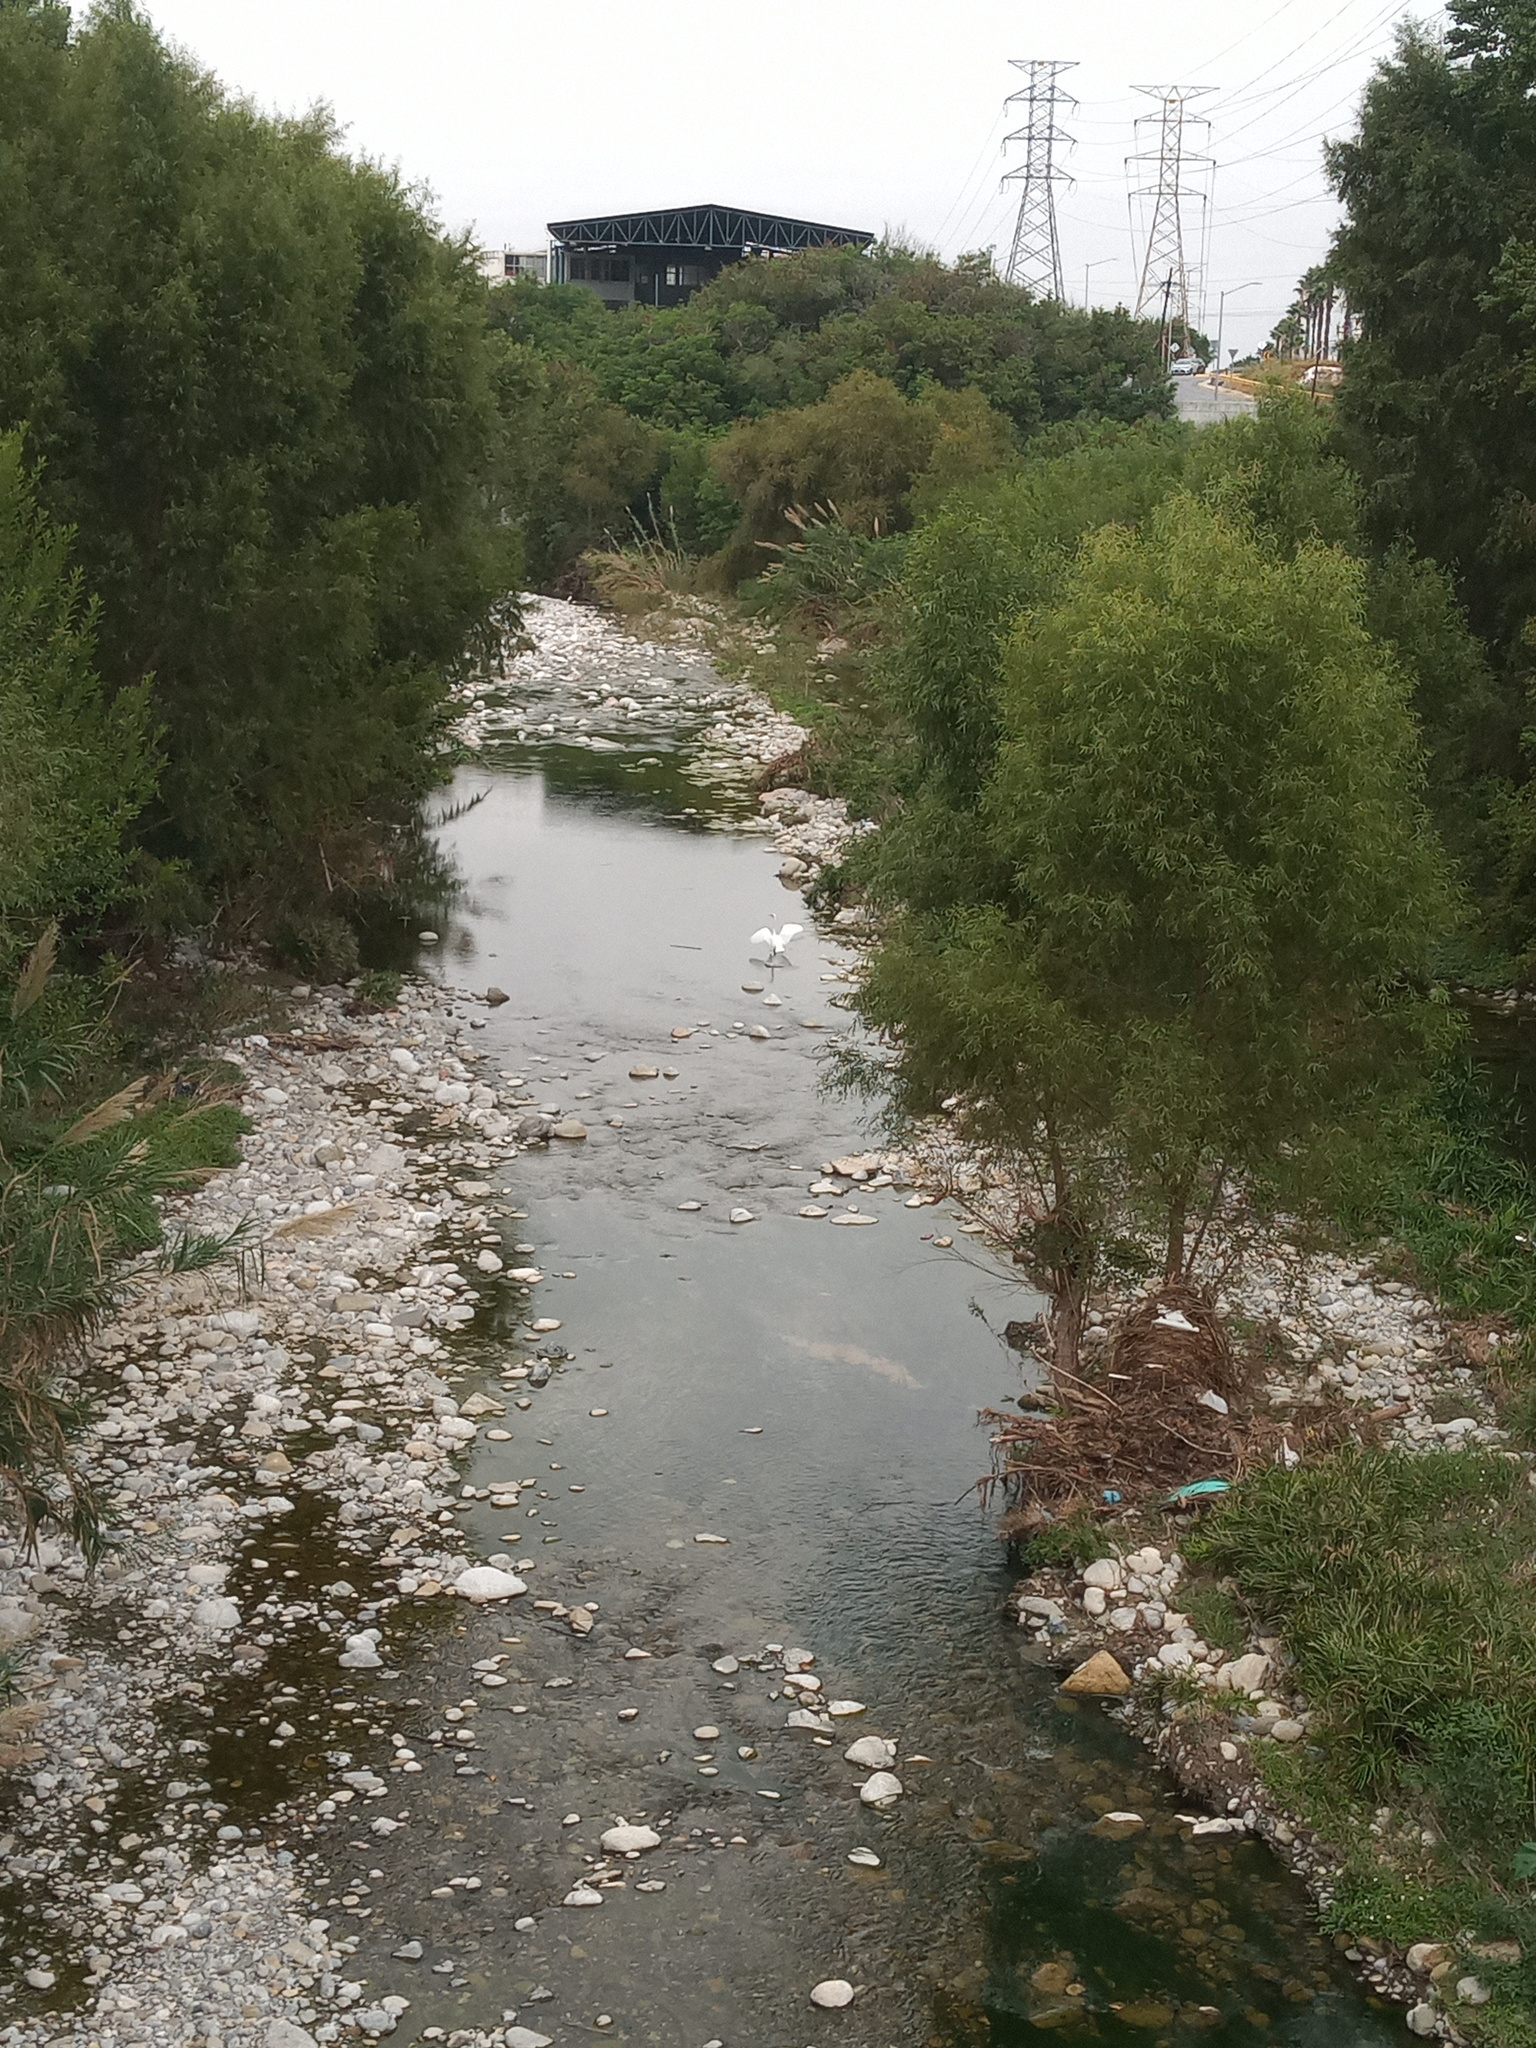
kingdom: Animalia
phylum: Chordata
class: Aves
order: Pelecaniformes
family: Ardeidae
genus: Ardea
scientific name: Ardea alba
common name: Great egret
